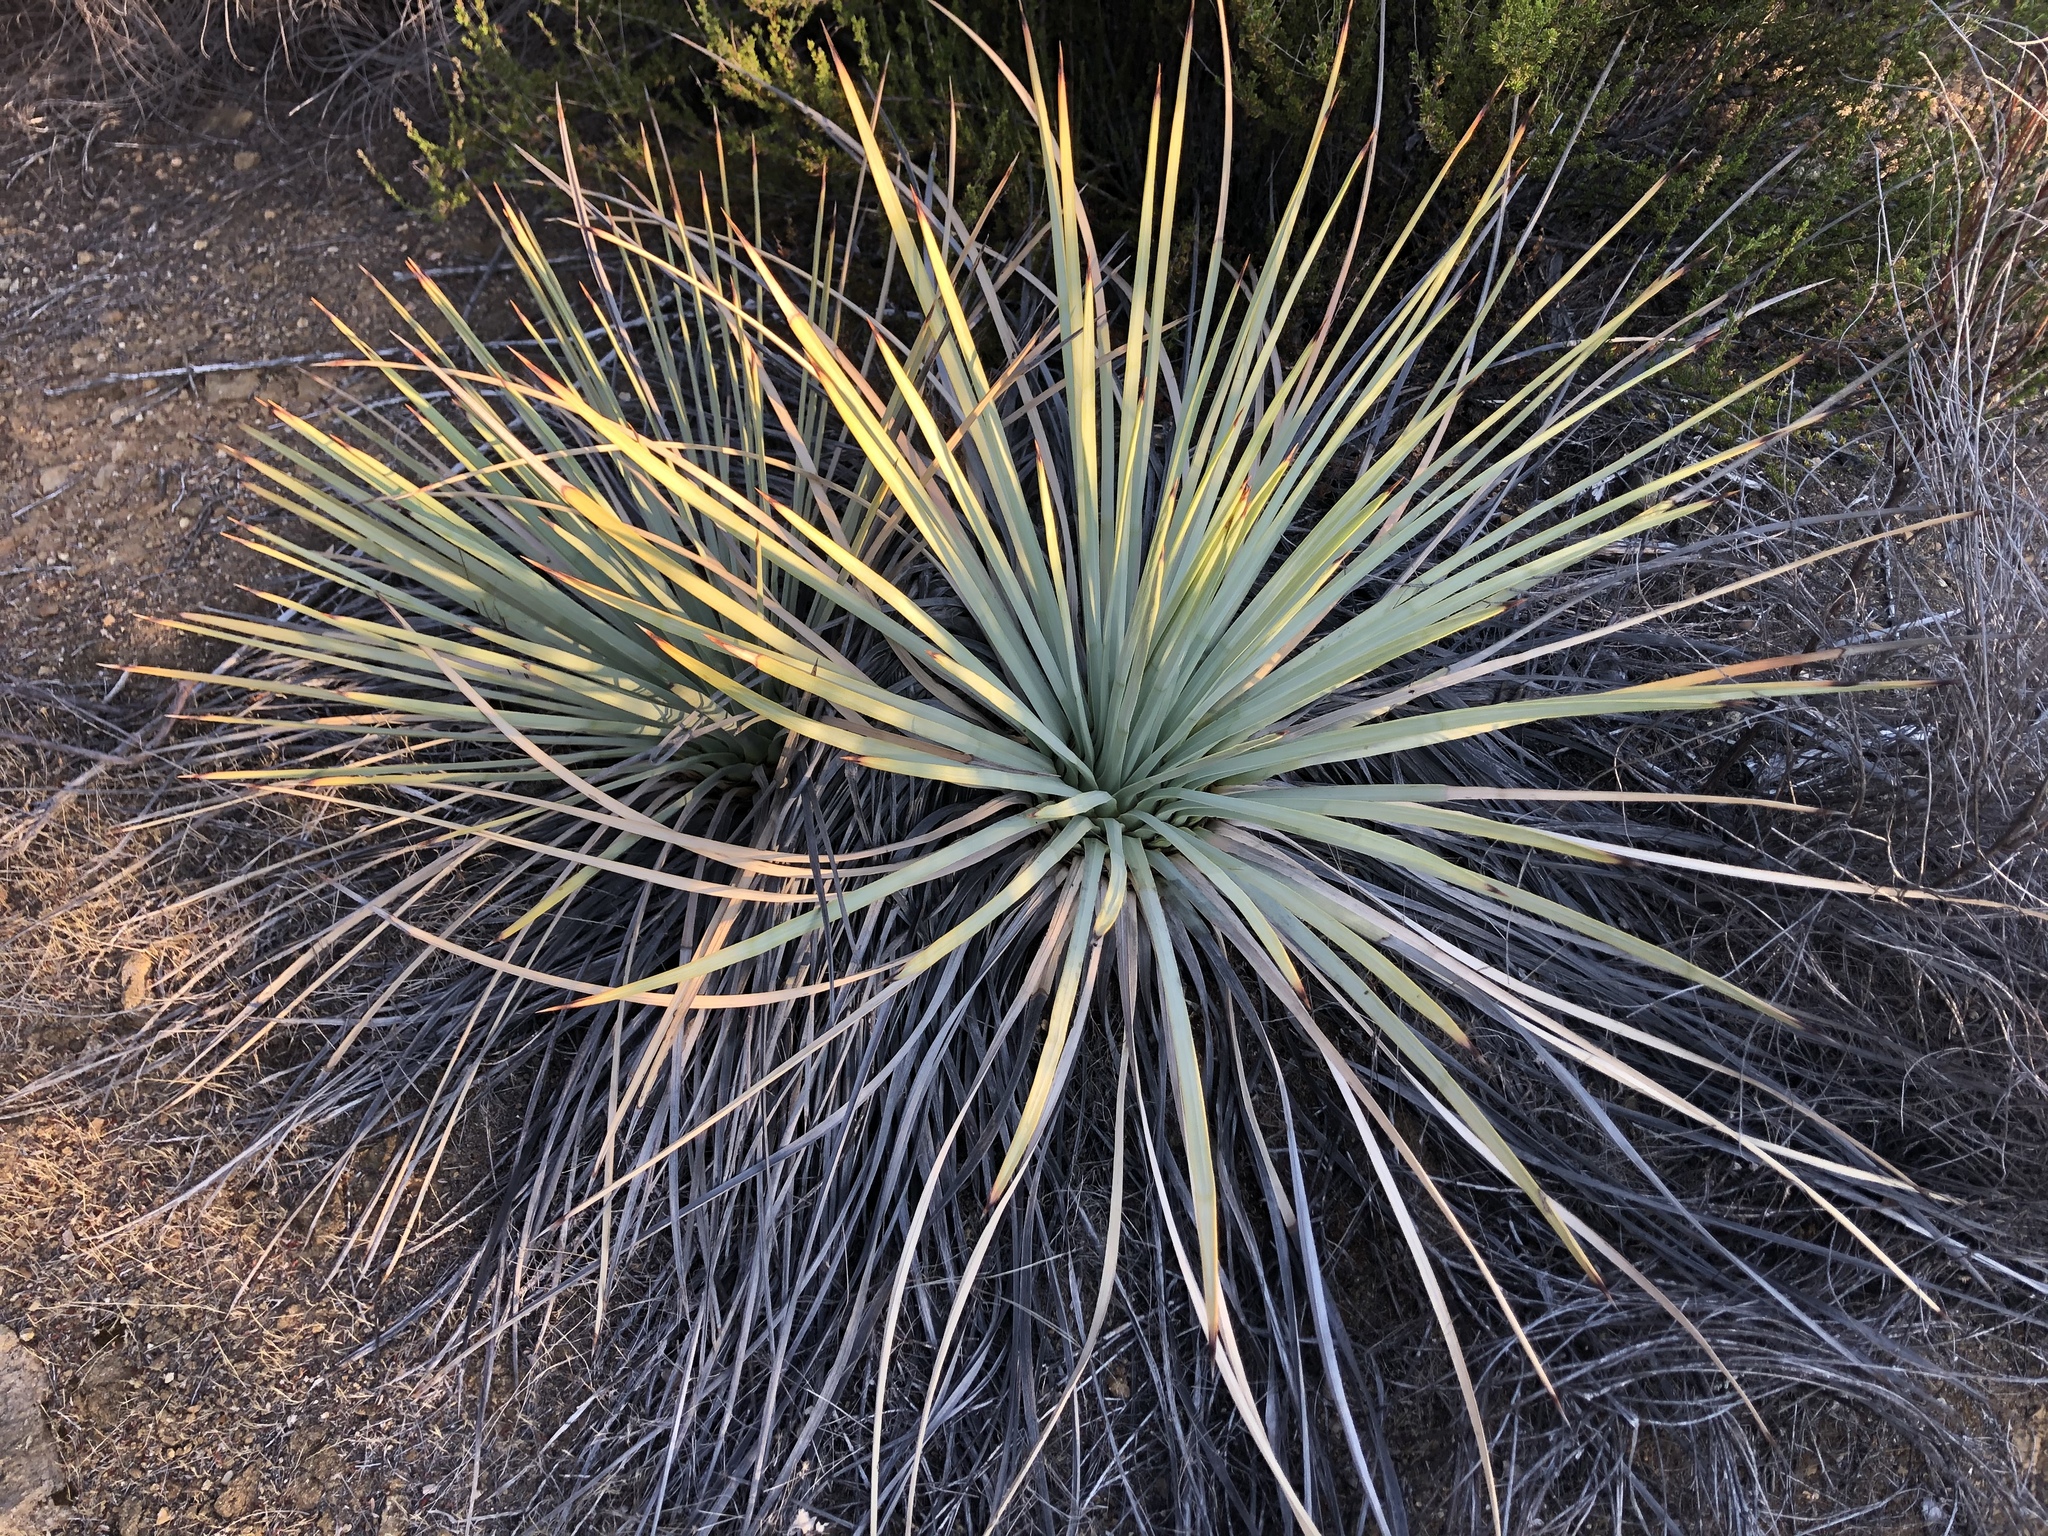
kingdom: Plantae
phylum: Tracheophyta
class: Liliopsida
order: Asparagales
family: Asparagaceae
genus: Hesperoyucca
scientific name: Hesperoyucca whipplei
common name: Our lord's-candle
